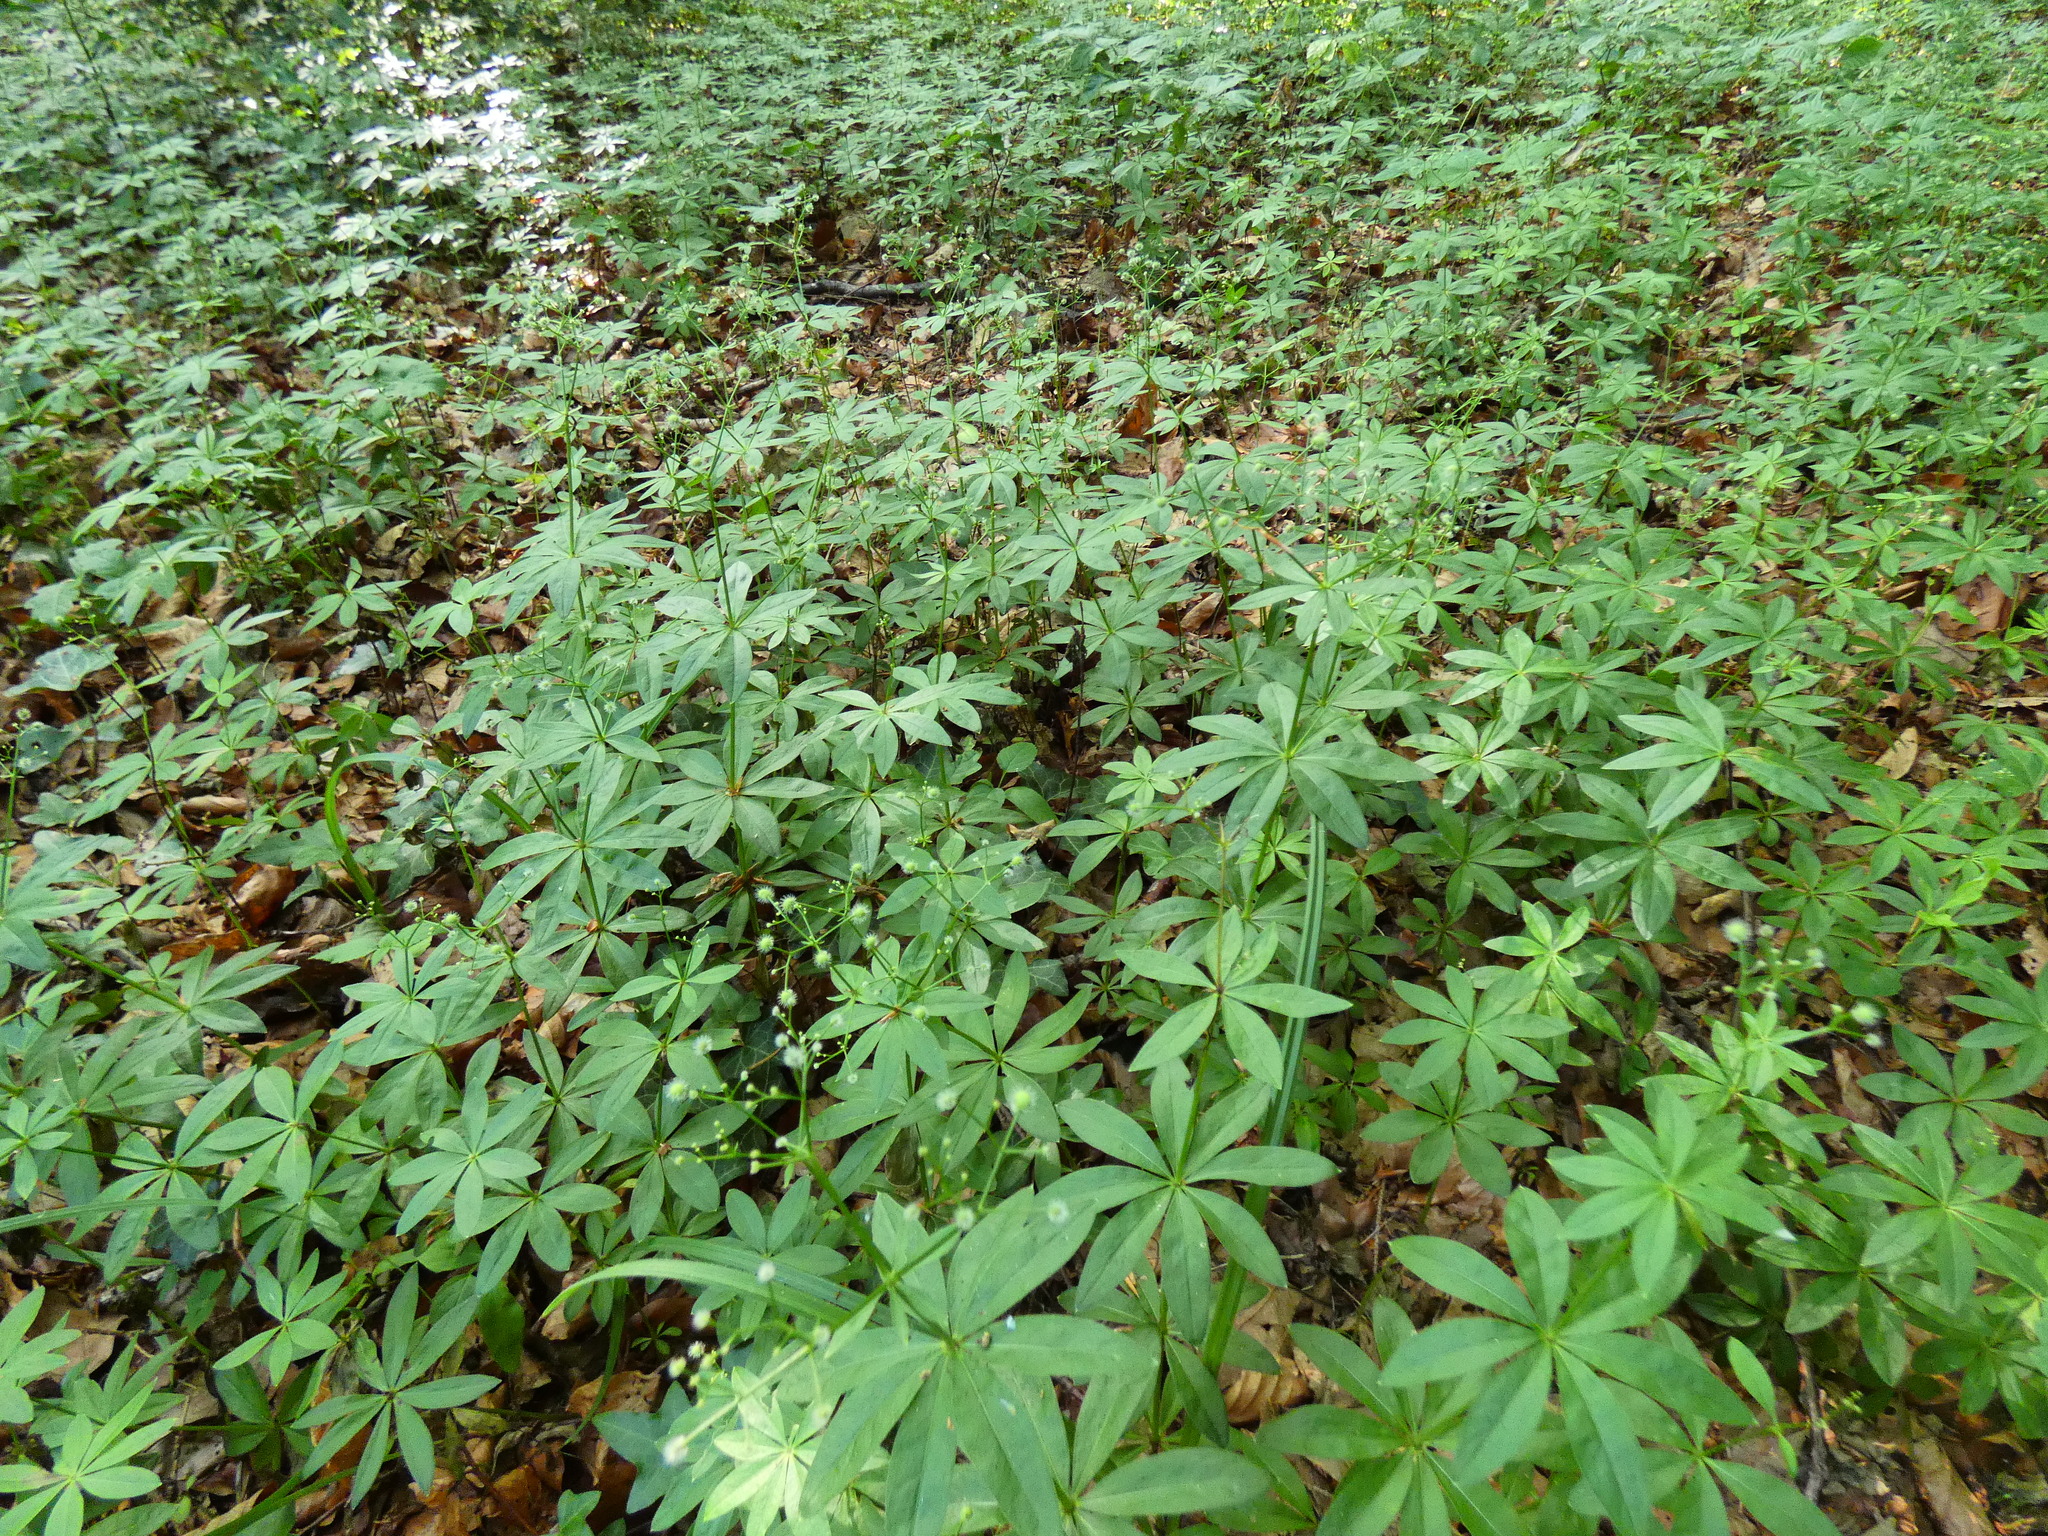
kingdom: Plantae
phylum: Tracheophyta
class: Magnoliopsida
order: Gentianales
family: Rubiaceae
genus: Galium
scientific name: Galium odoratum
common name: Sweet woodruff
